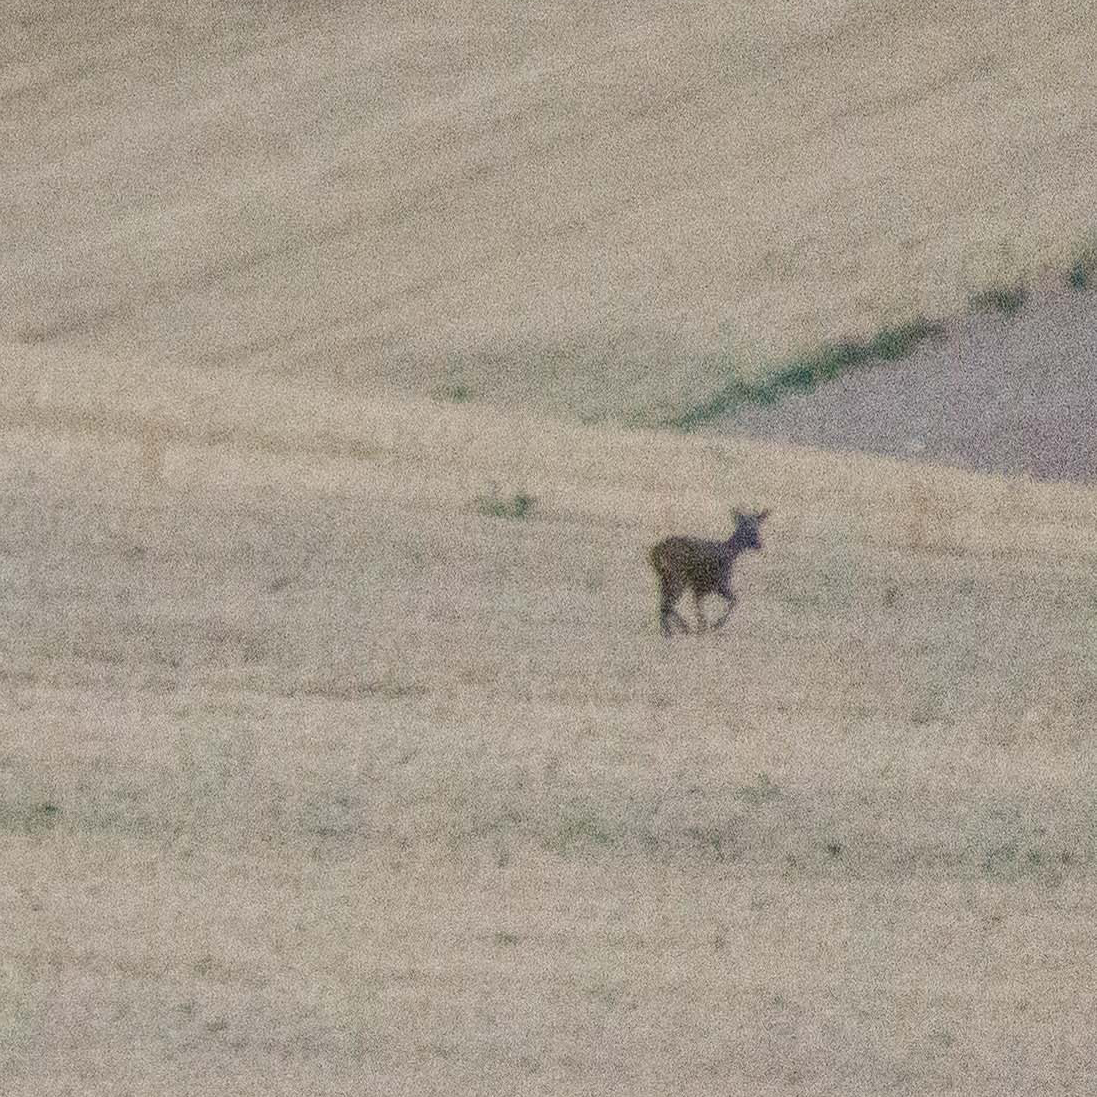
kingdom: Animalia
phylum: Chordata
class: Mammalia
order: Artiodactyla
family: Cervidae
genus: Capreolus
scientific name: Capreolus capreolus
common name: Western roe deer
